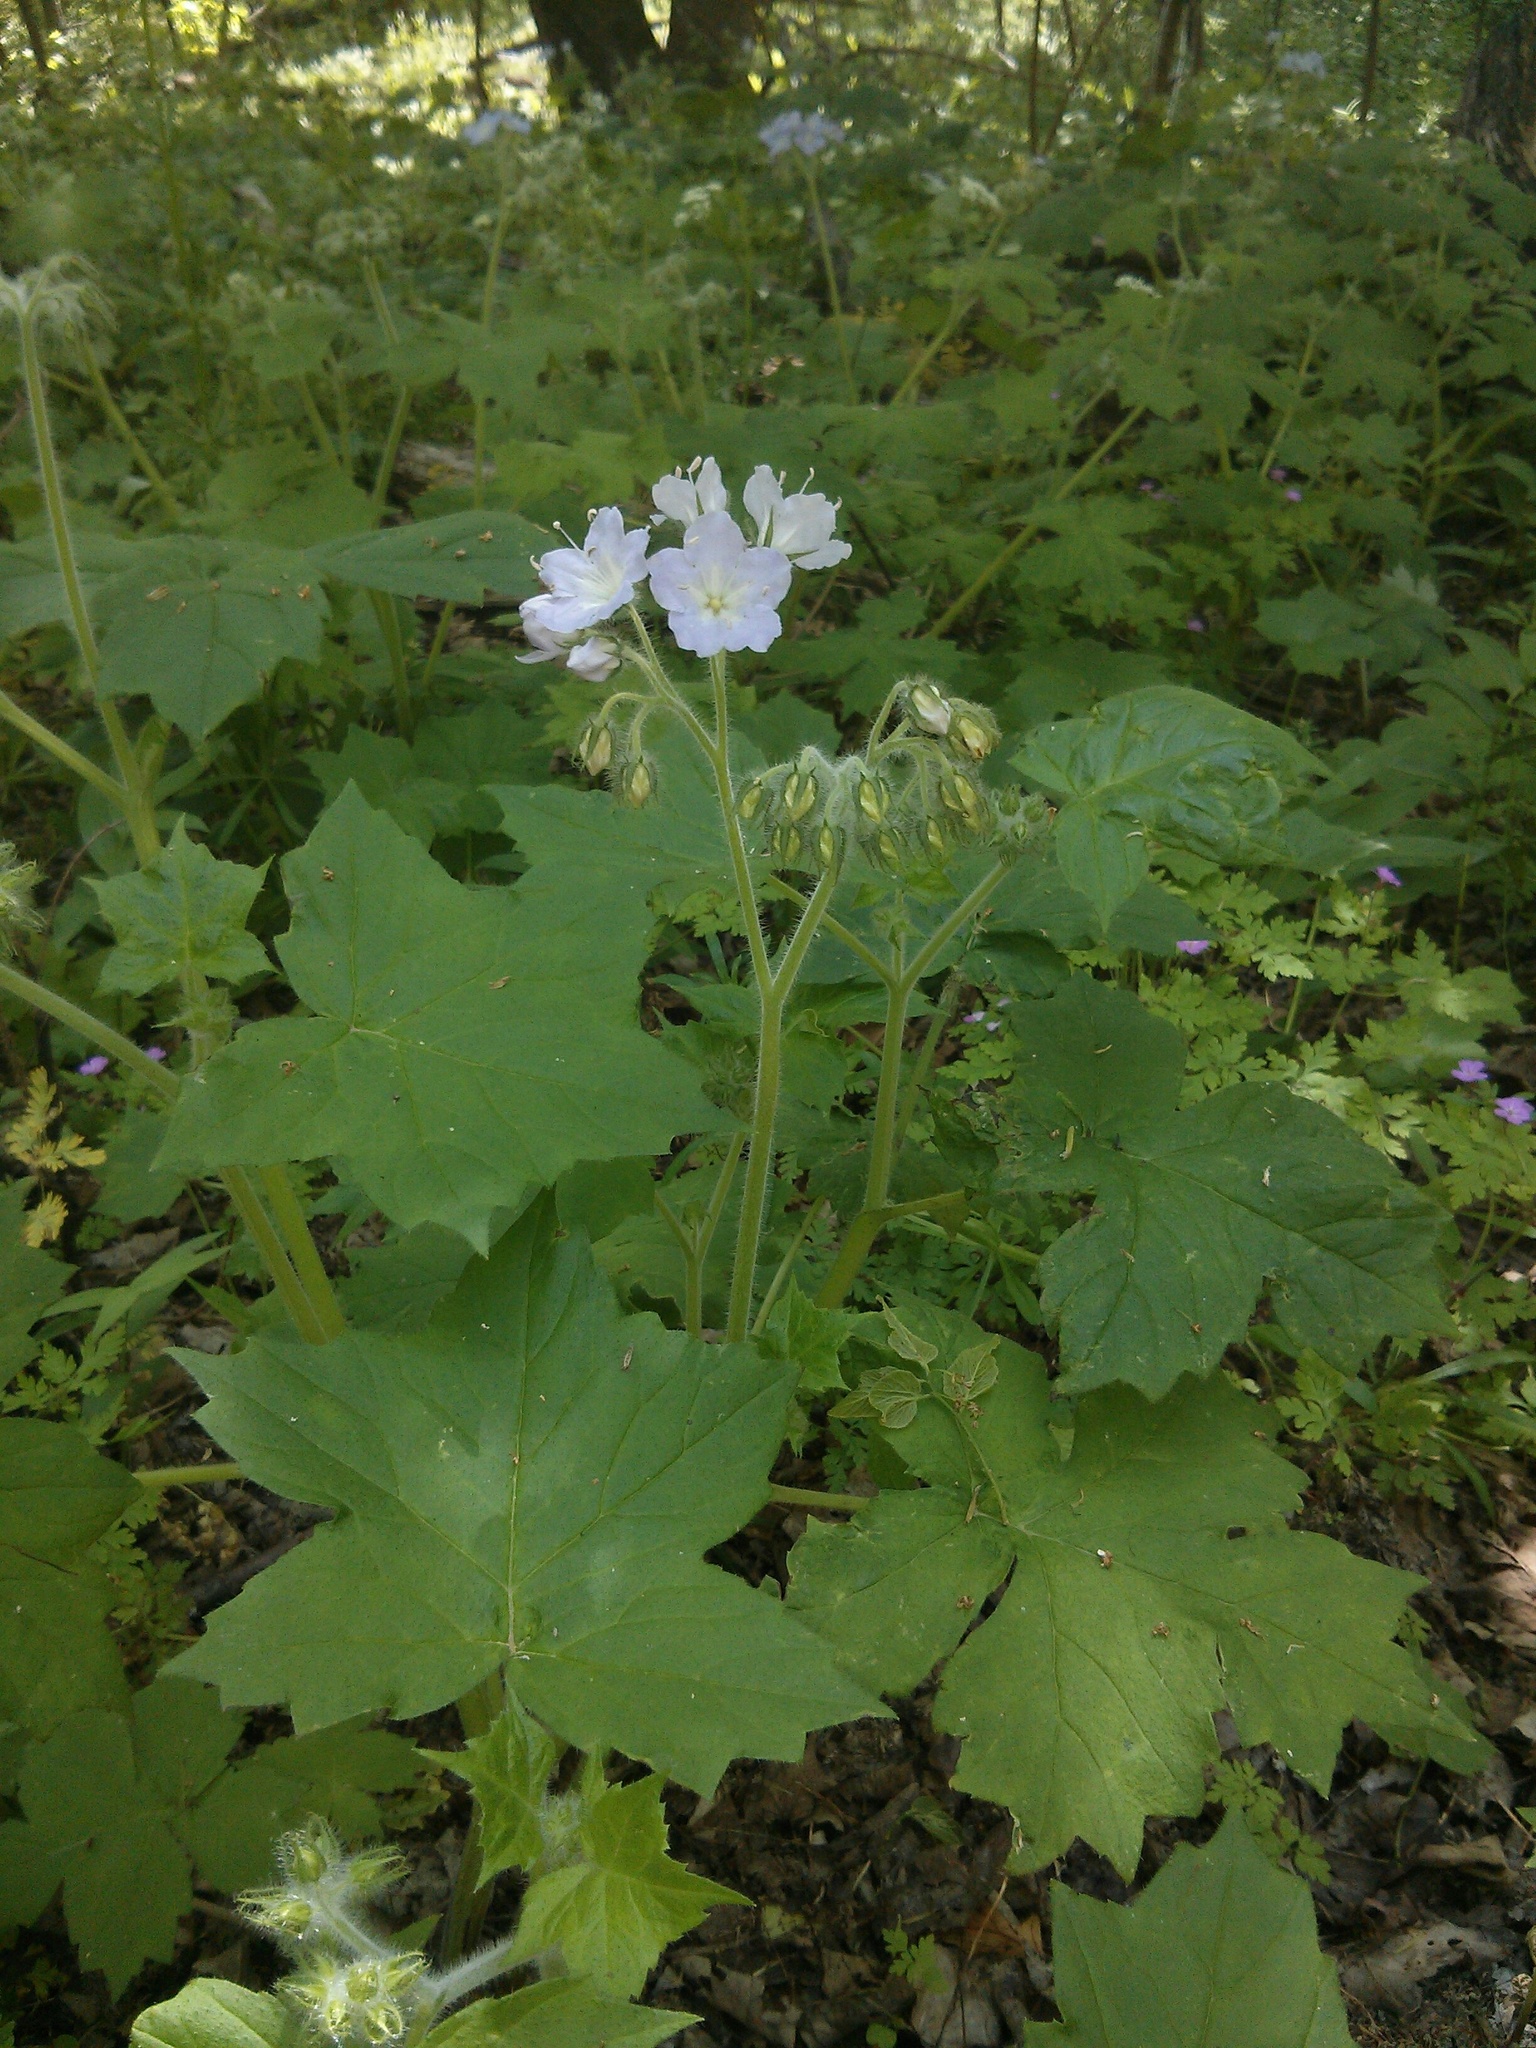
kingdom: Plantae
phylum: Tracheophyta
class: Magnoliopsida
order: Boraginales
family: Hydrophyllaceae
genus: Hydrophyllum
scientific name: Hydrophyllum appendiculatum
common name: Appendaged waterleaf
